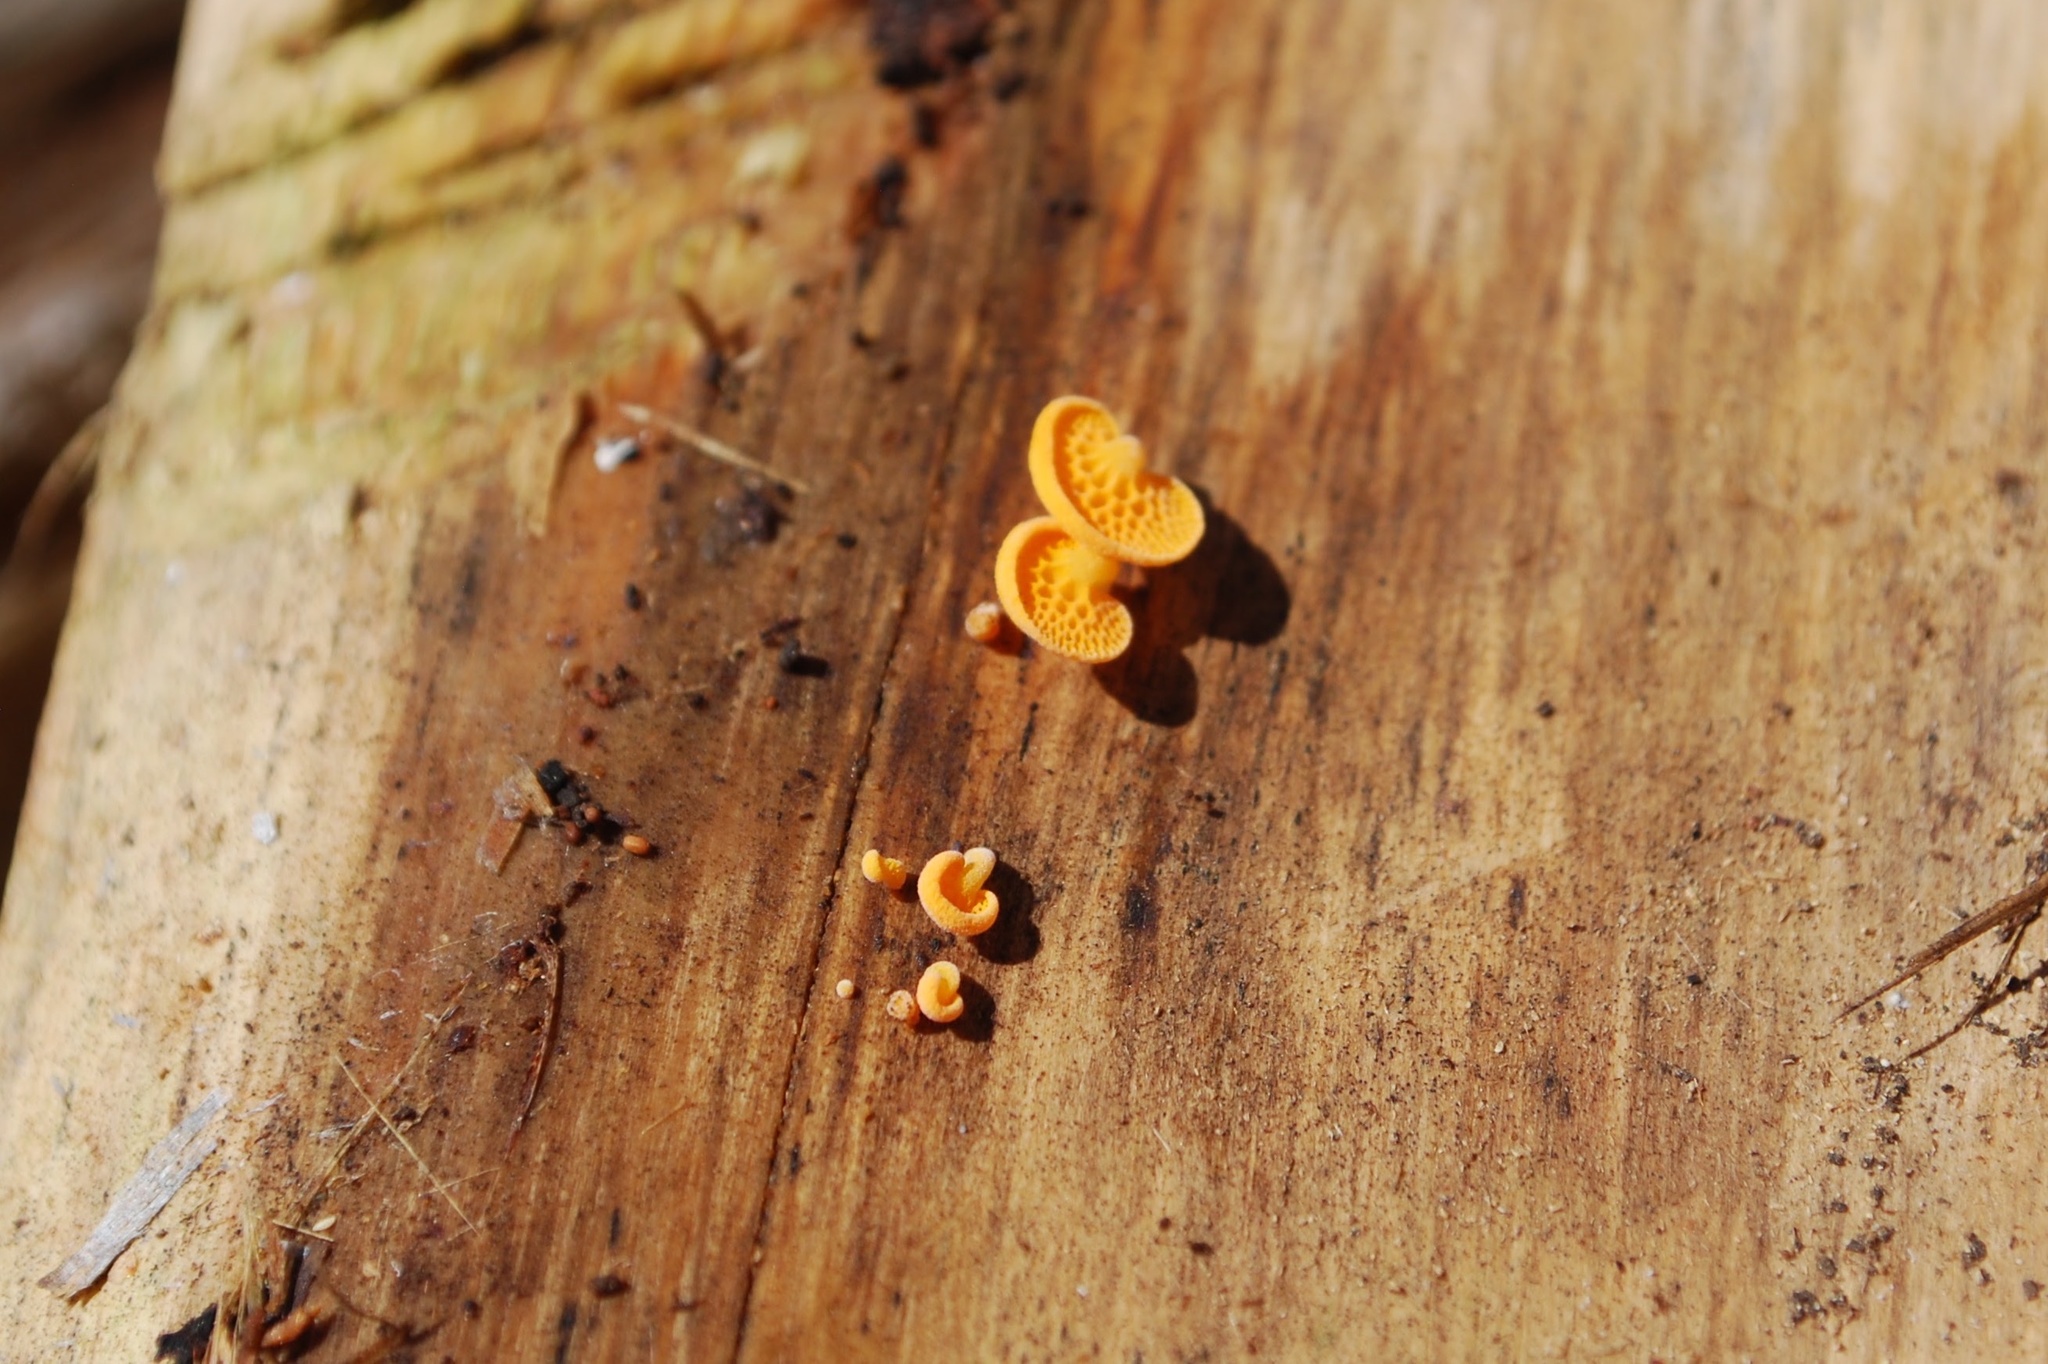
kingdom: Fungi
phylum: Basidiomycota
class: Agaricomycetes
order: Agaricales
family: Mycenaceae
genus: Favolaschia
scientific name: Favolaschia claudopus
